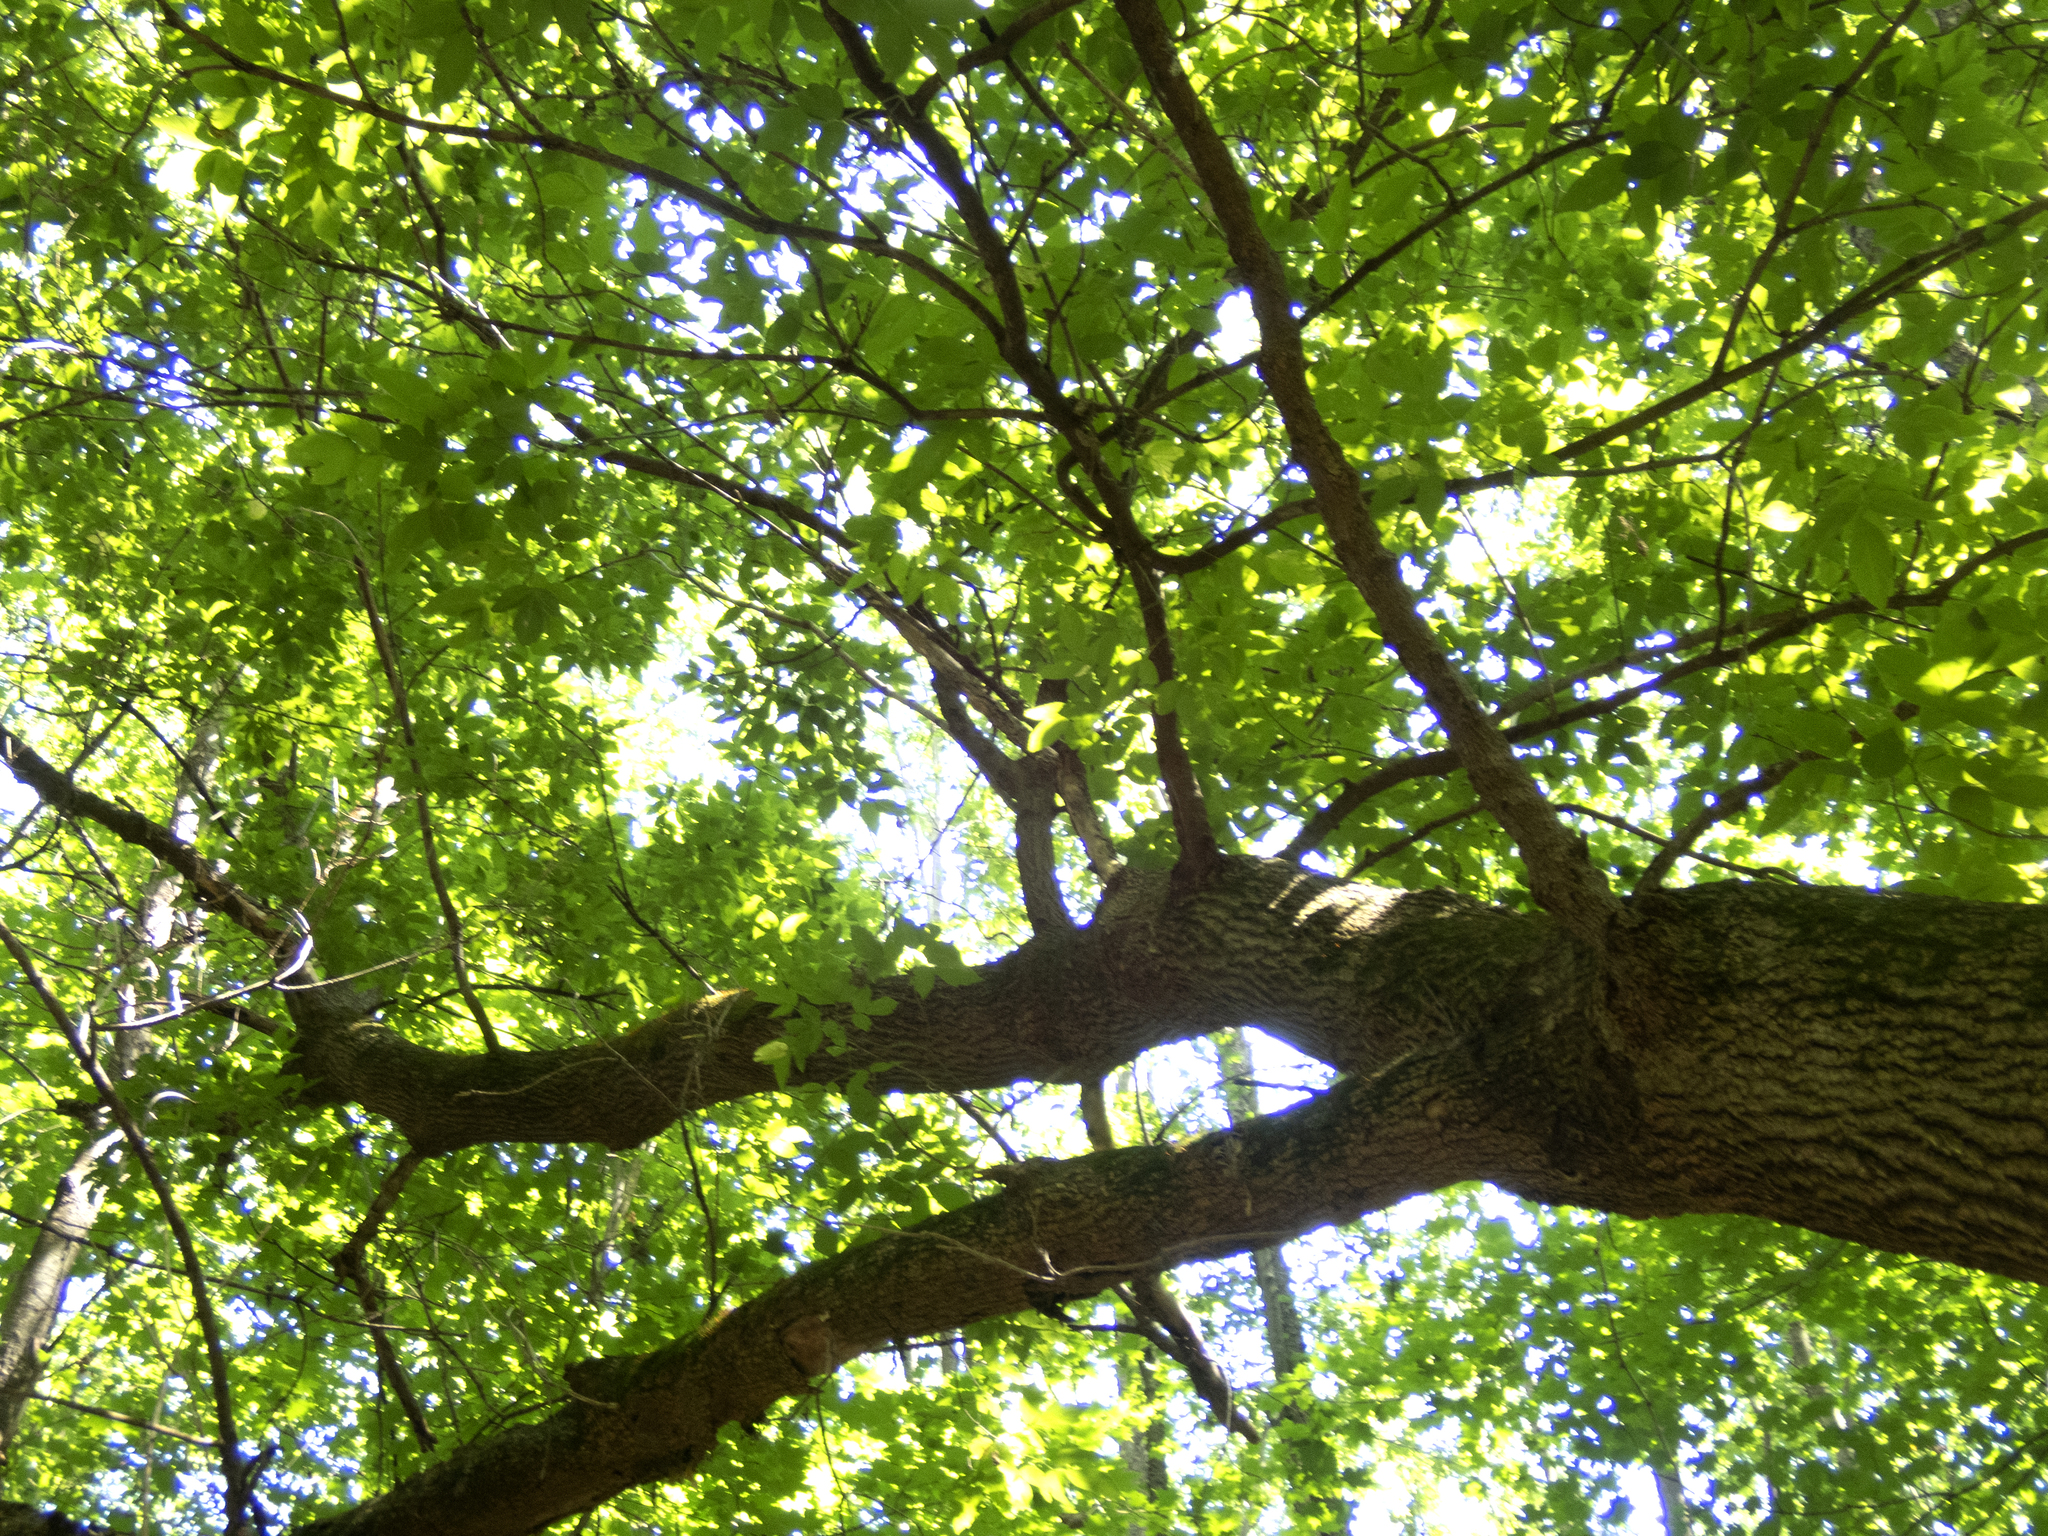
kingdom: Plantae
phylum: Tracheophyta
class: Magnoliopsida
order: Sapindales
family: Sapindaceae
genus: Acer
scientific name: Acer negundo
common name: Ashleaf maple
